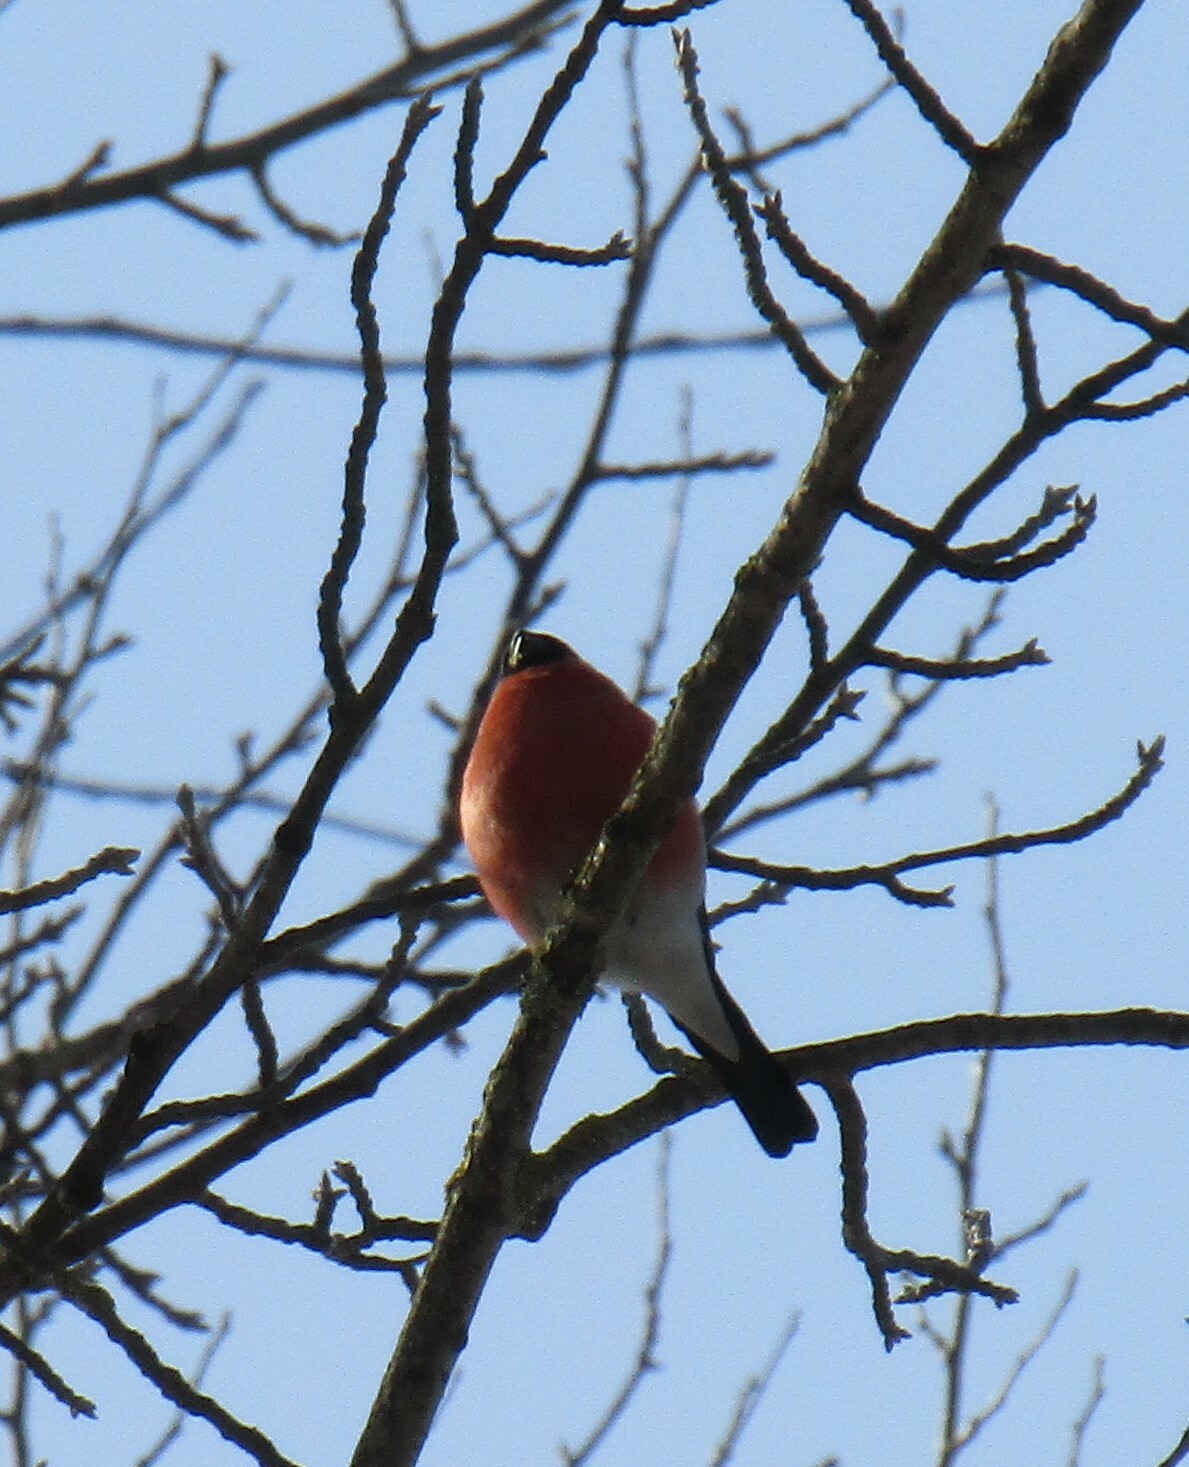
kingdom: Animalia
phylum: Chordata
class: Aves
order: Passeriformes
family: Fringillidae
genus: Pyrrhula
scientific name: Pyrrhula pyrrhula
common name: Eurasian bullfinch
